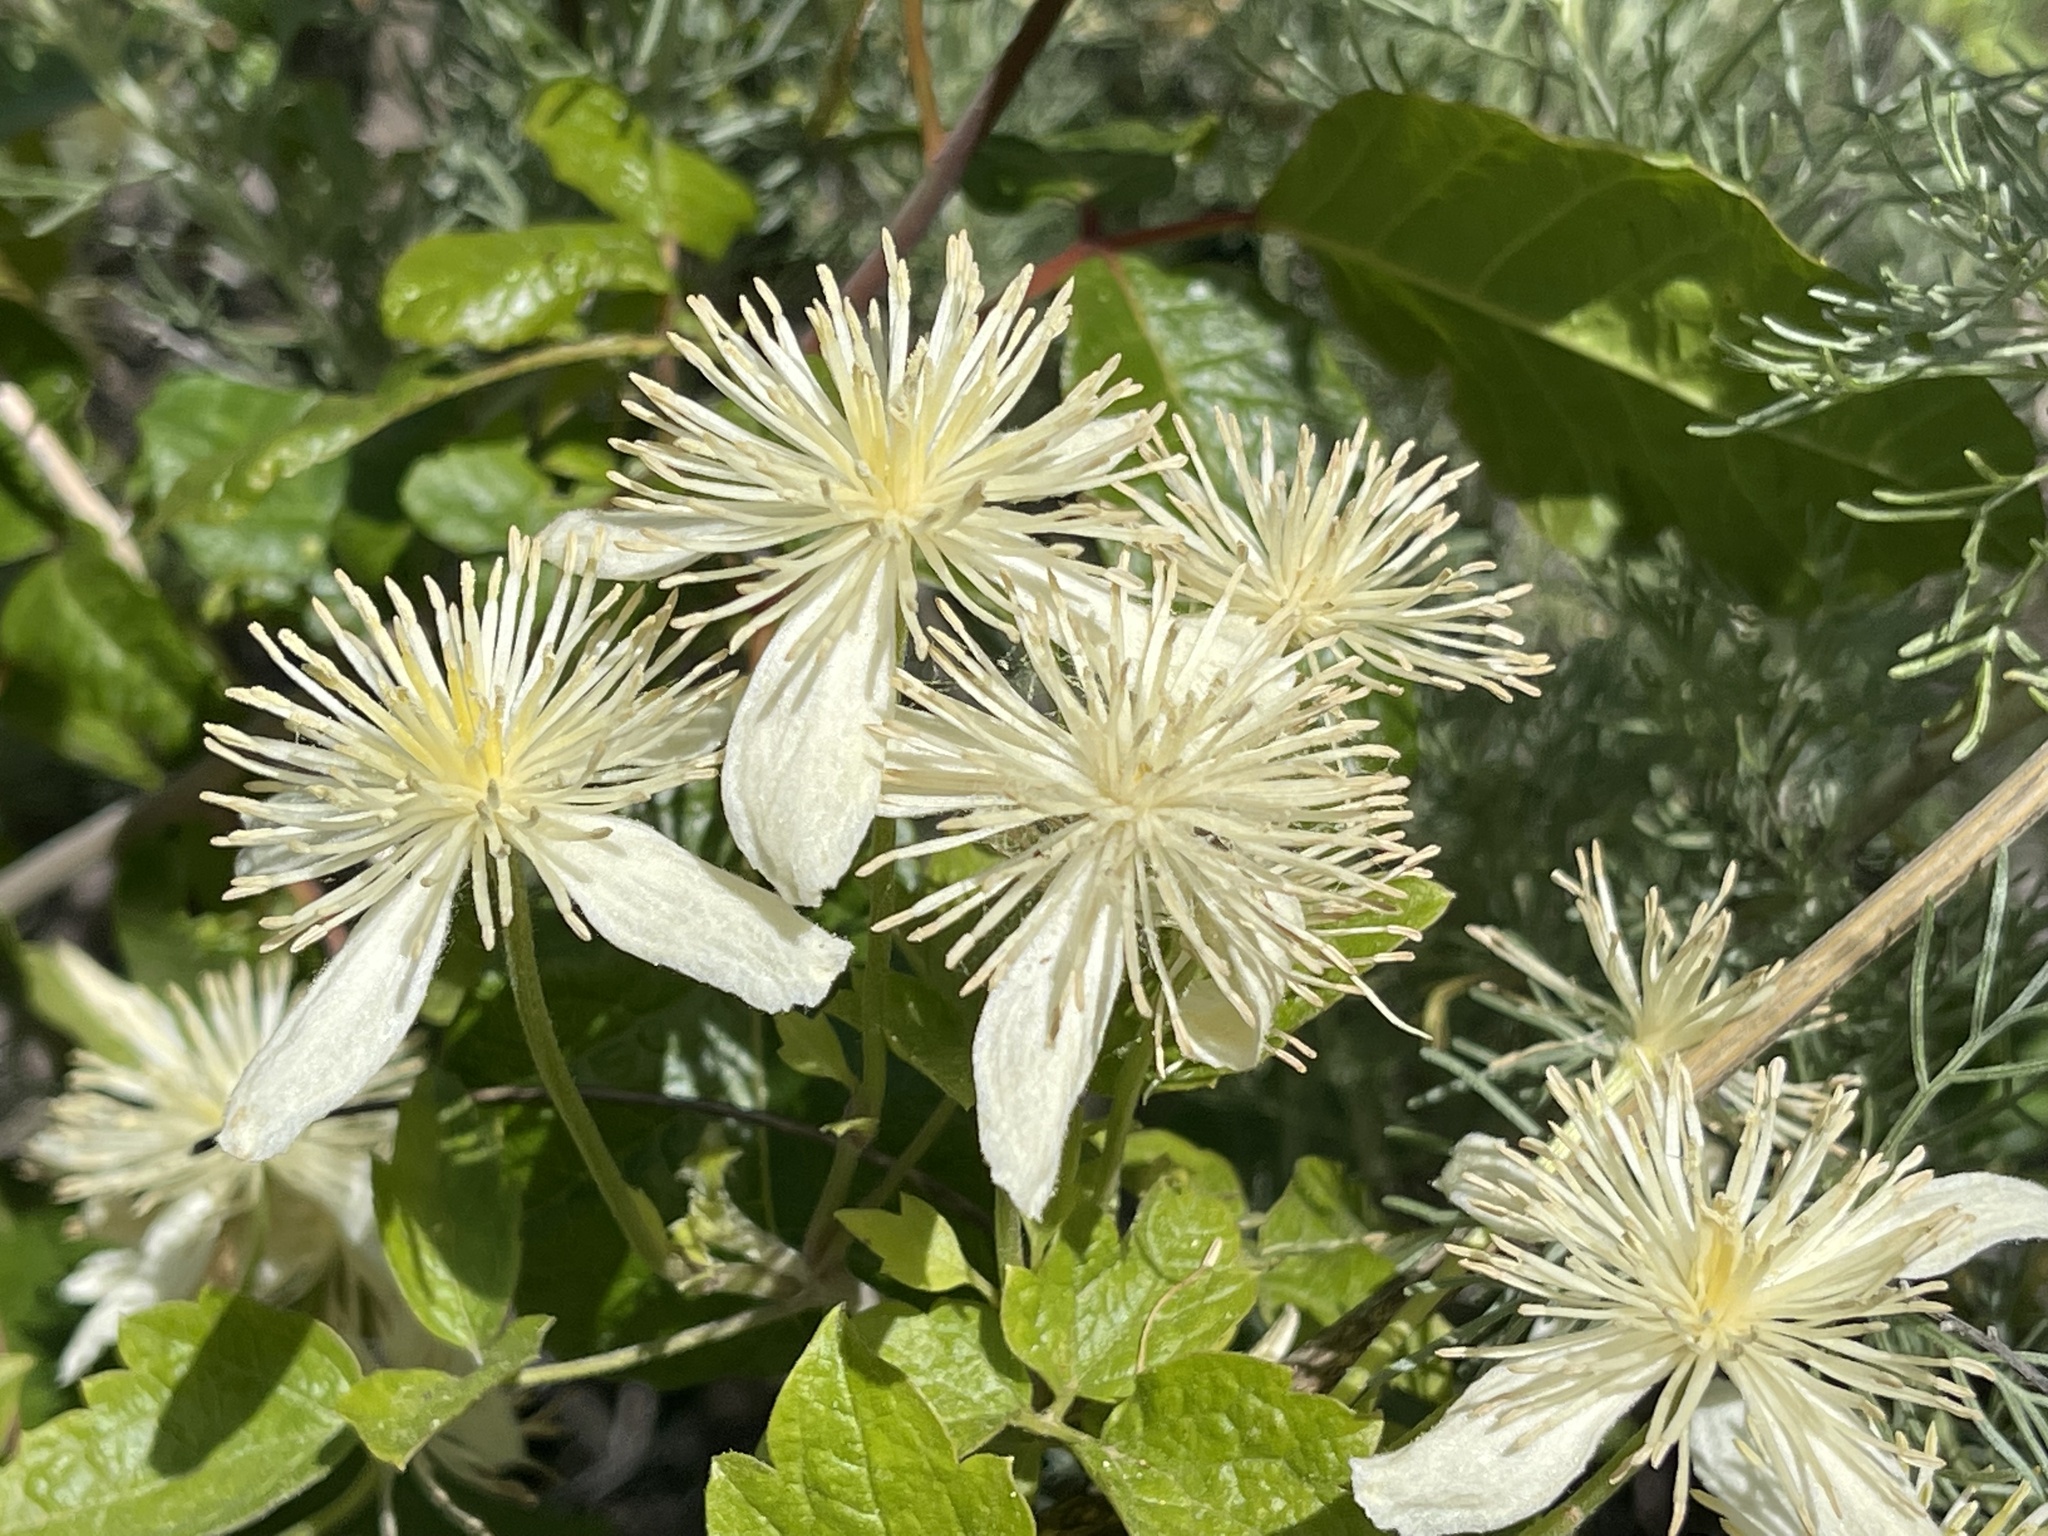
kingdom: Plantae
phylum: Tracheophyta
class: Magnoliopsida
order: Ranunculales
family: Ranunculaceae
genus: Clematis
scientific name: Clematis lasiantha
